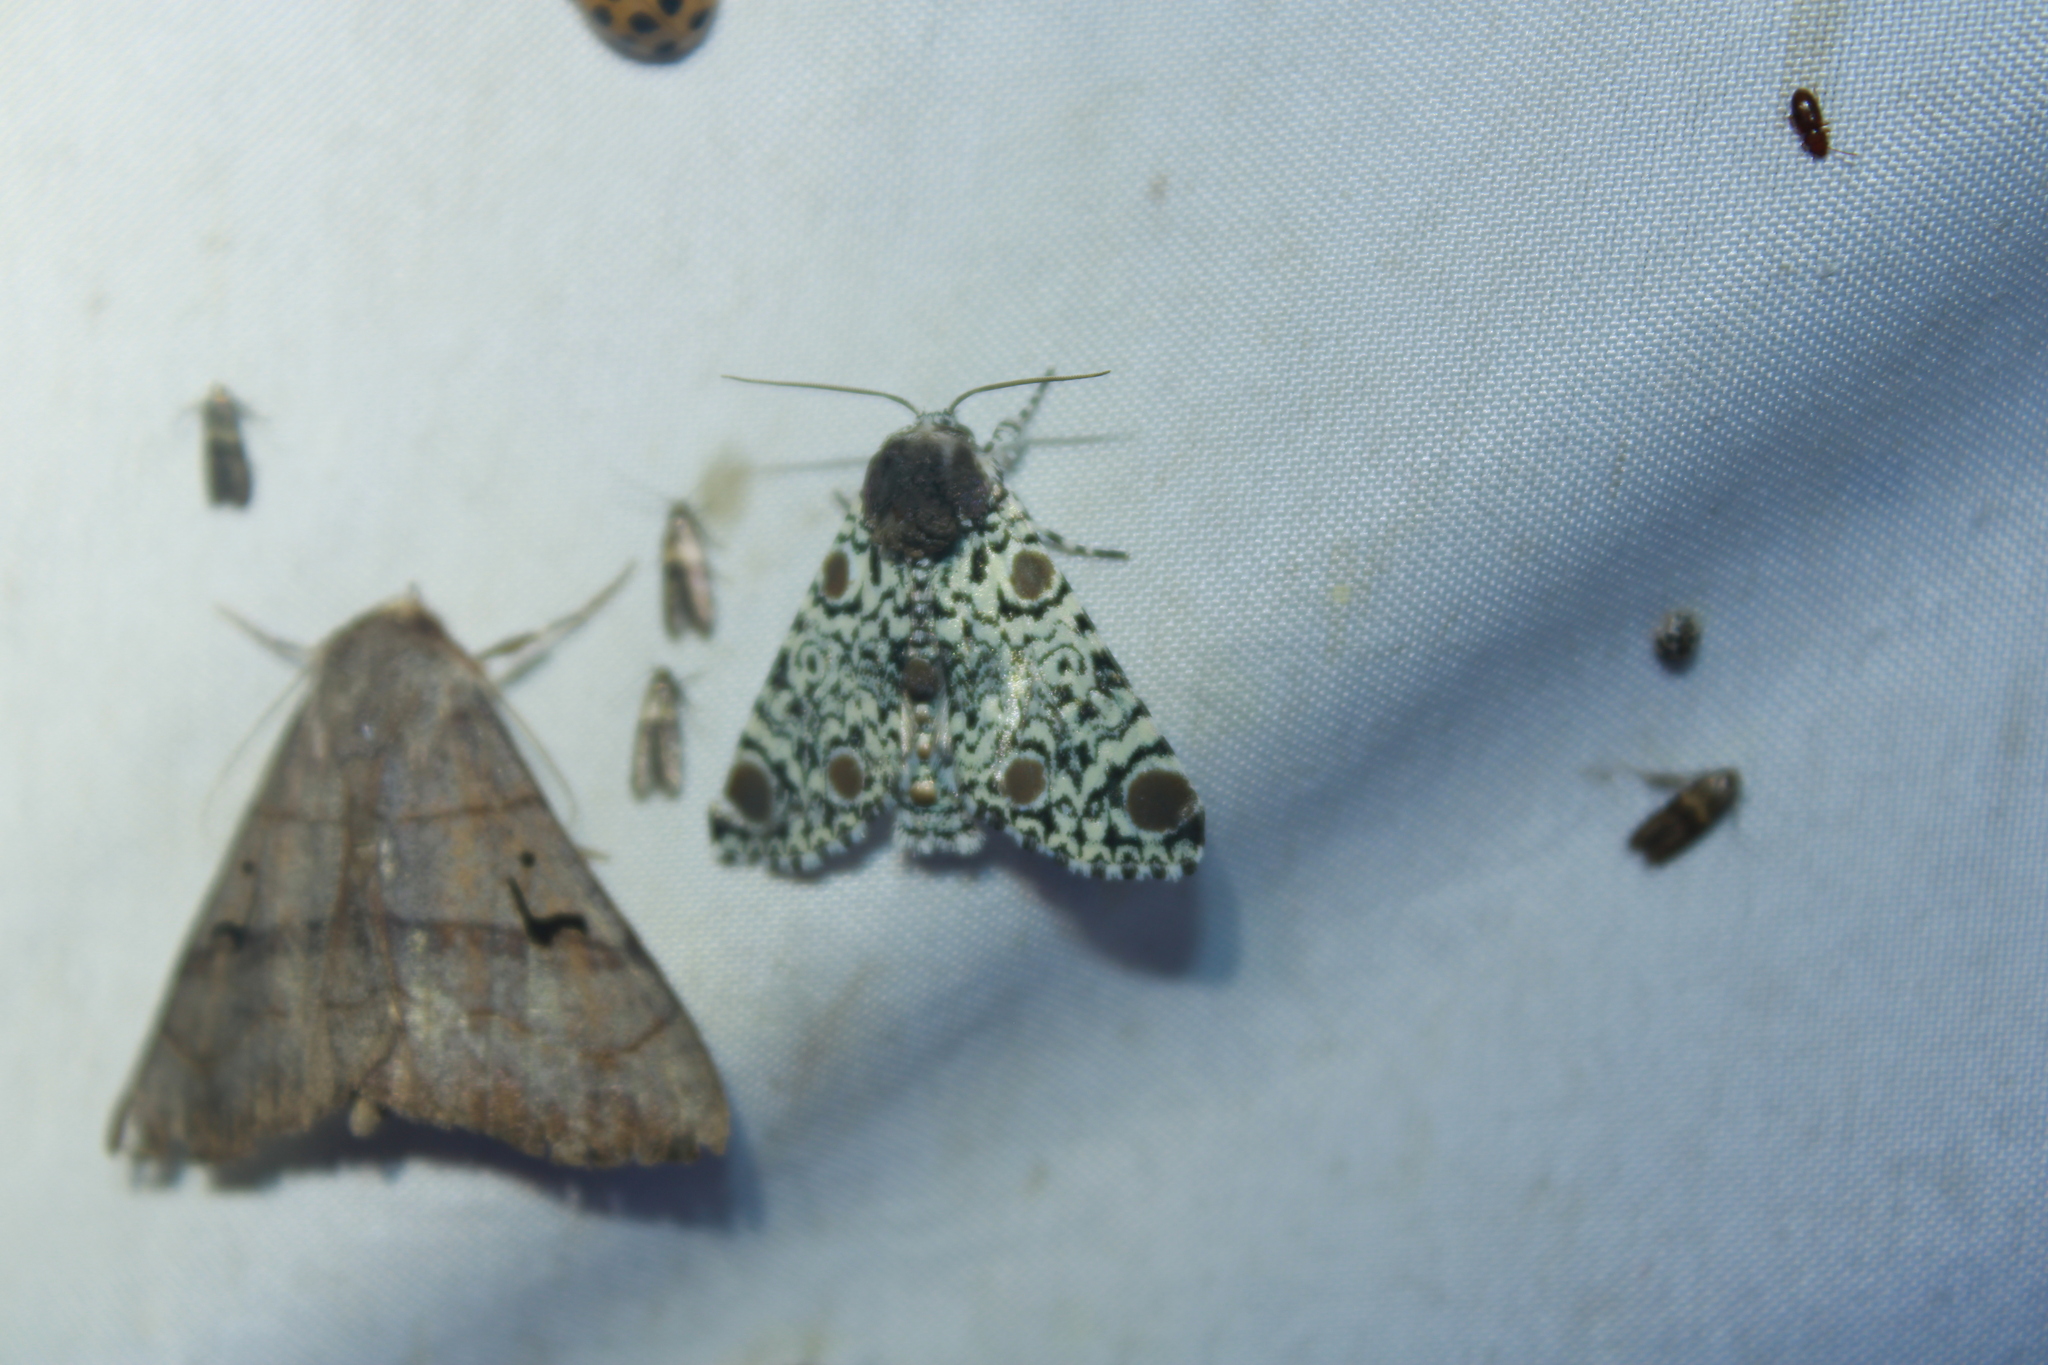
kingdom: Animalia
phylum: Arthropoda
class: Insecta
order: Lepidoptera
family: Noctuidae
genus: Harrisimemna
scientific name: Harrisimemna trisignata
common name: Harris threespot
